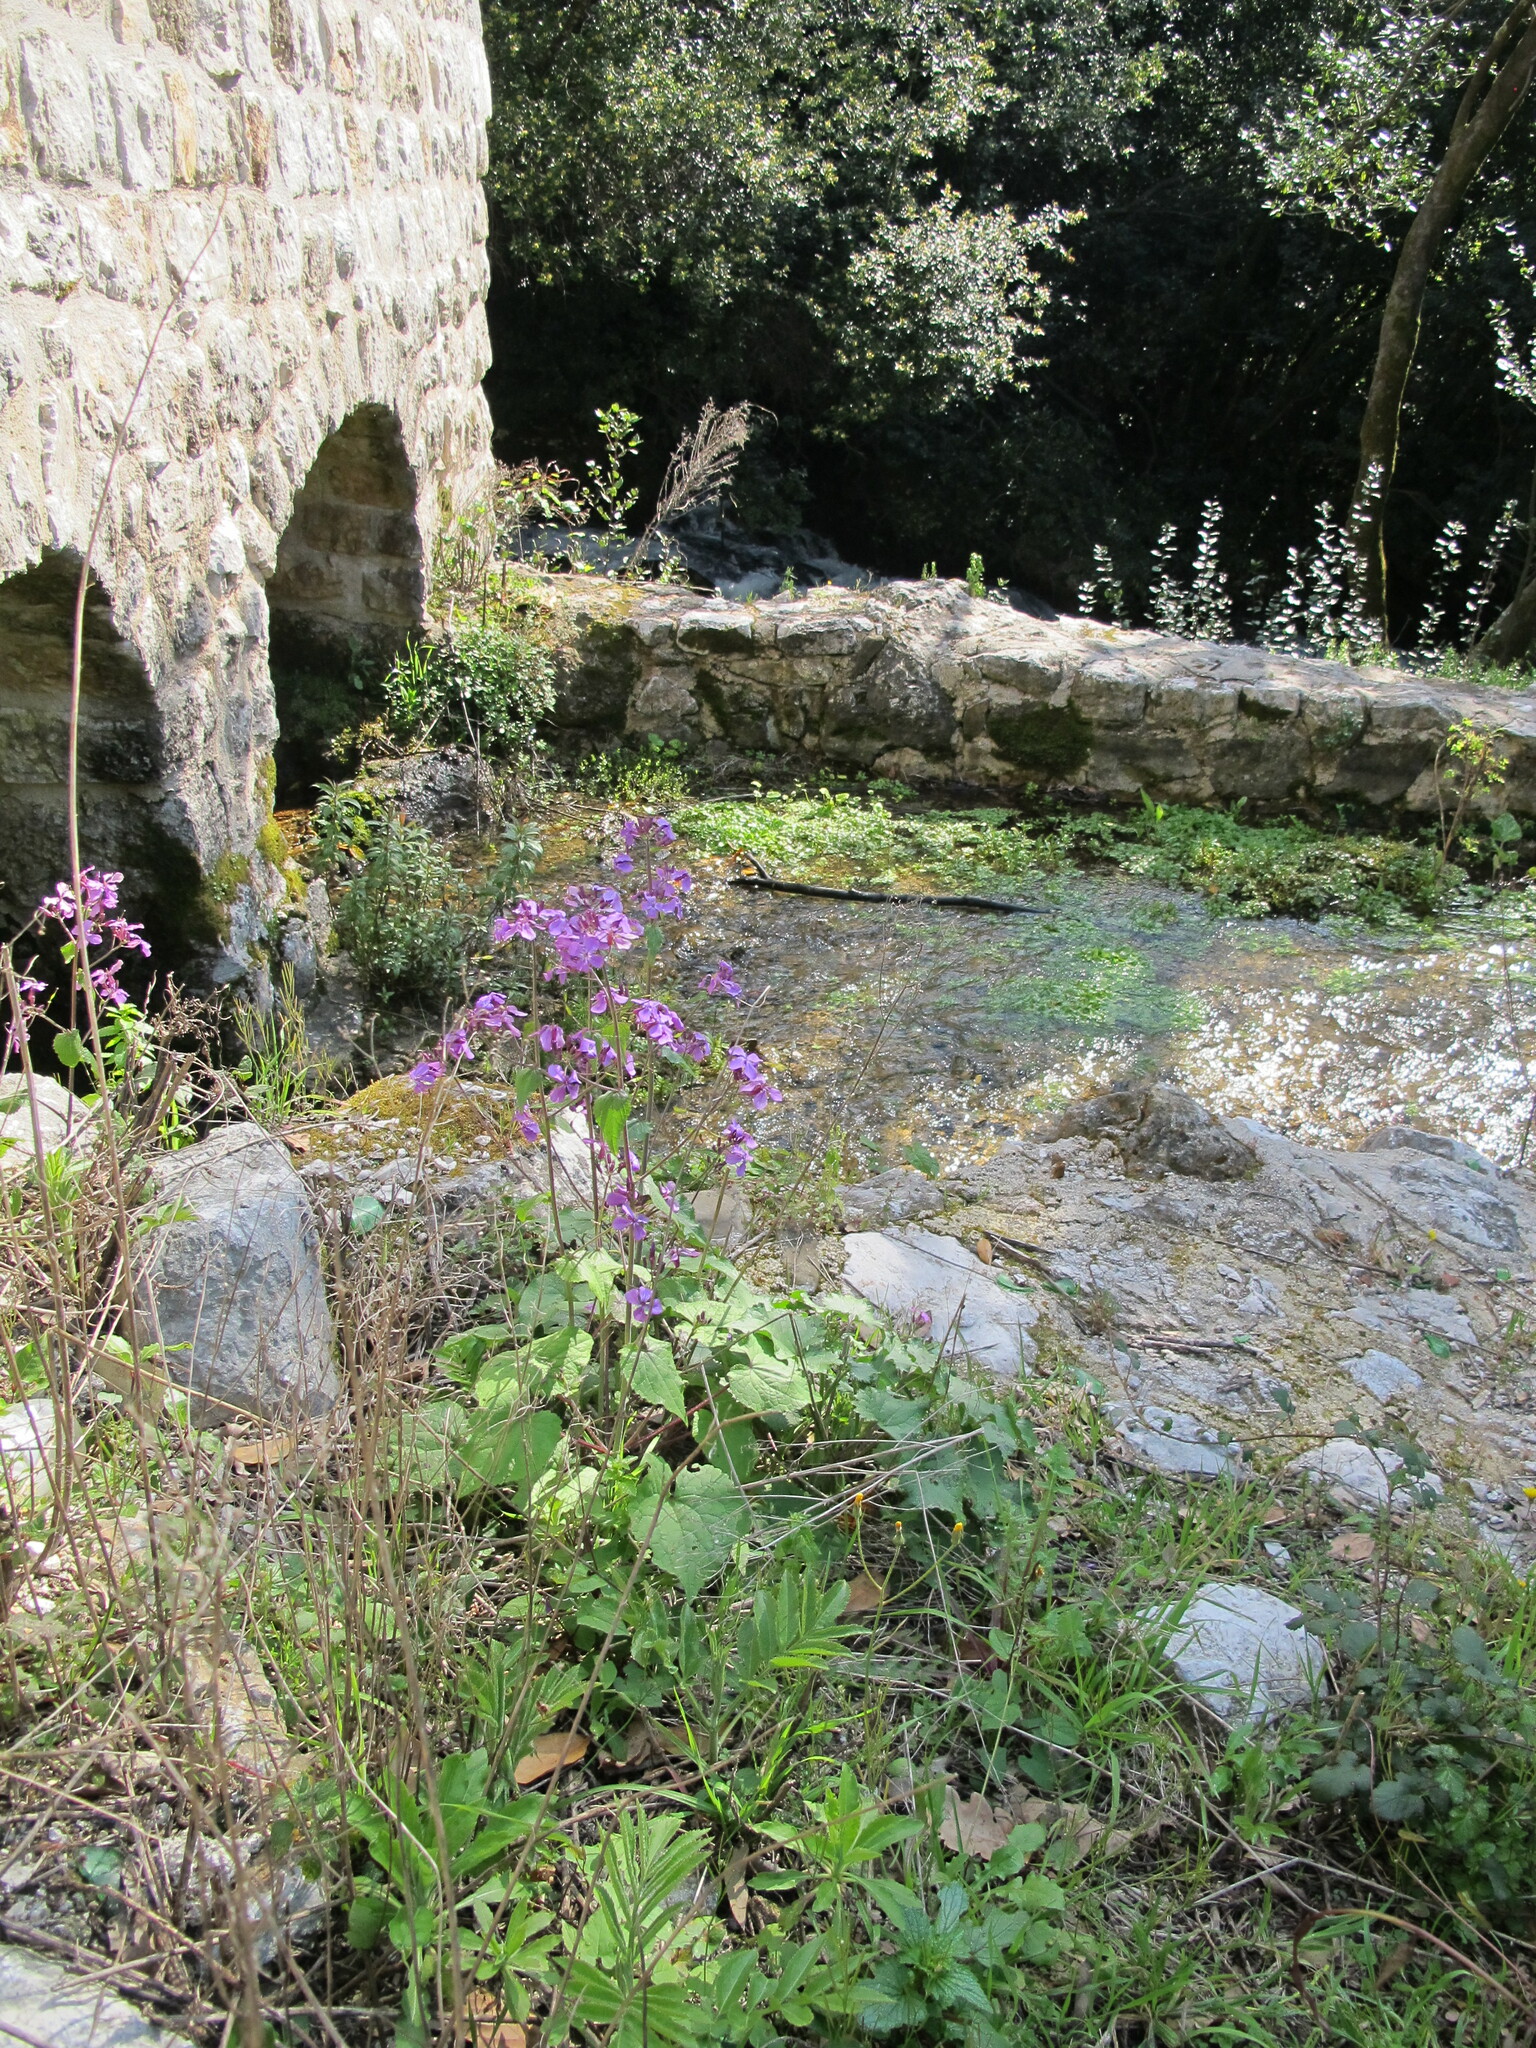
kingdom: Plantae
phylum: Tracheophyta
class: Magnoliopsida
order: Brassicales
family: Brassicaceae
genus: Lunaria
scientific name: Lunaria annua
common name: Honesty
